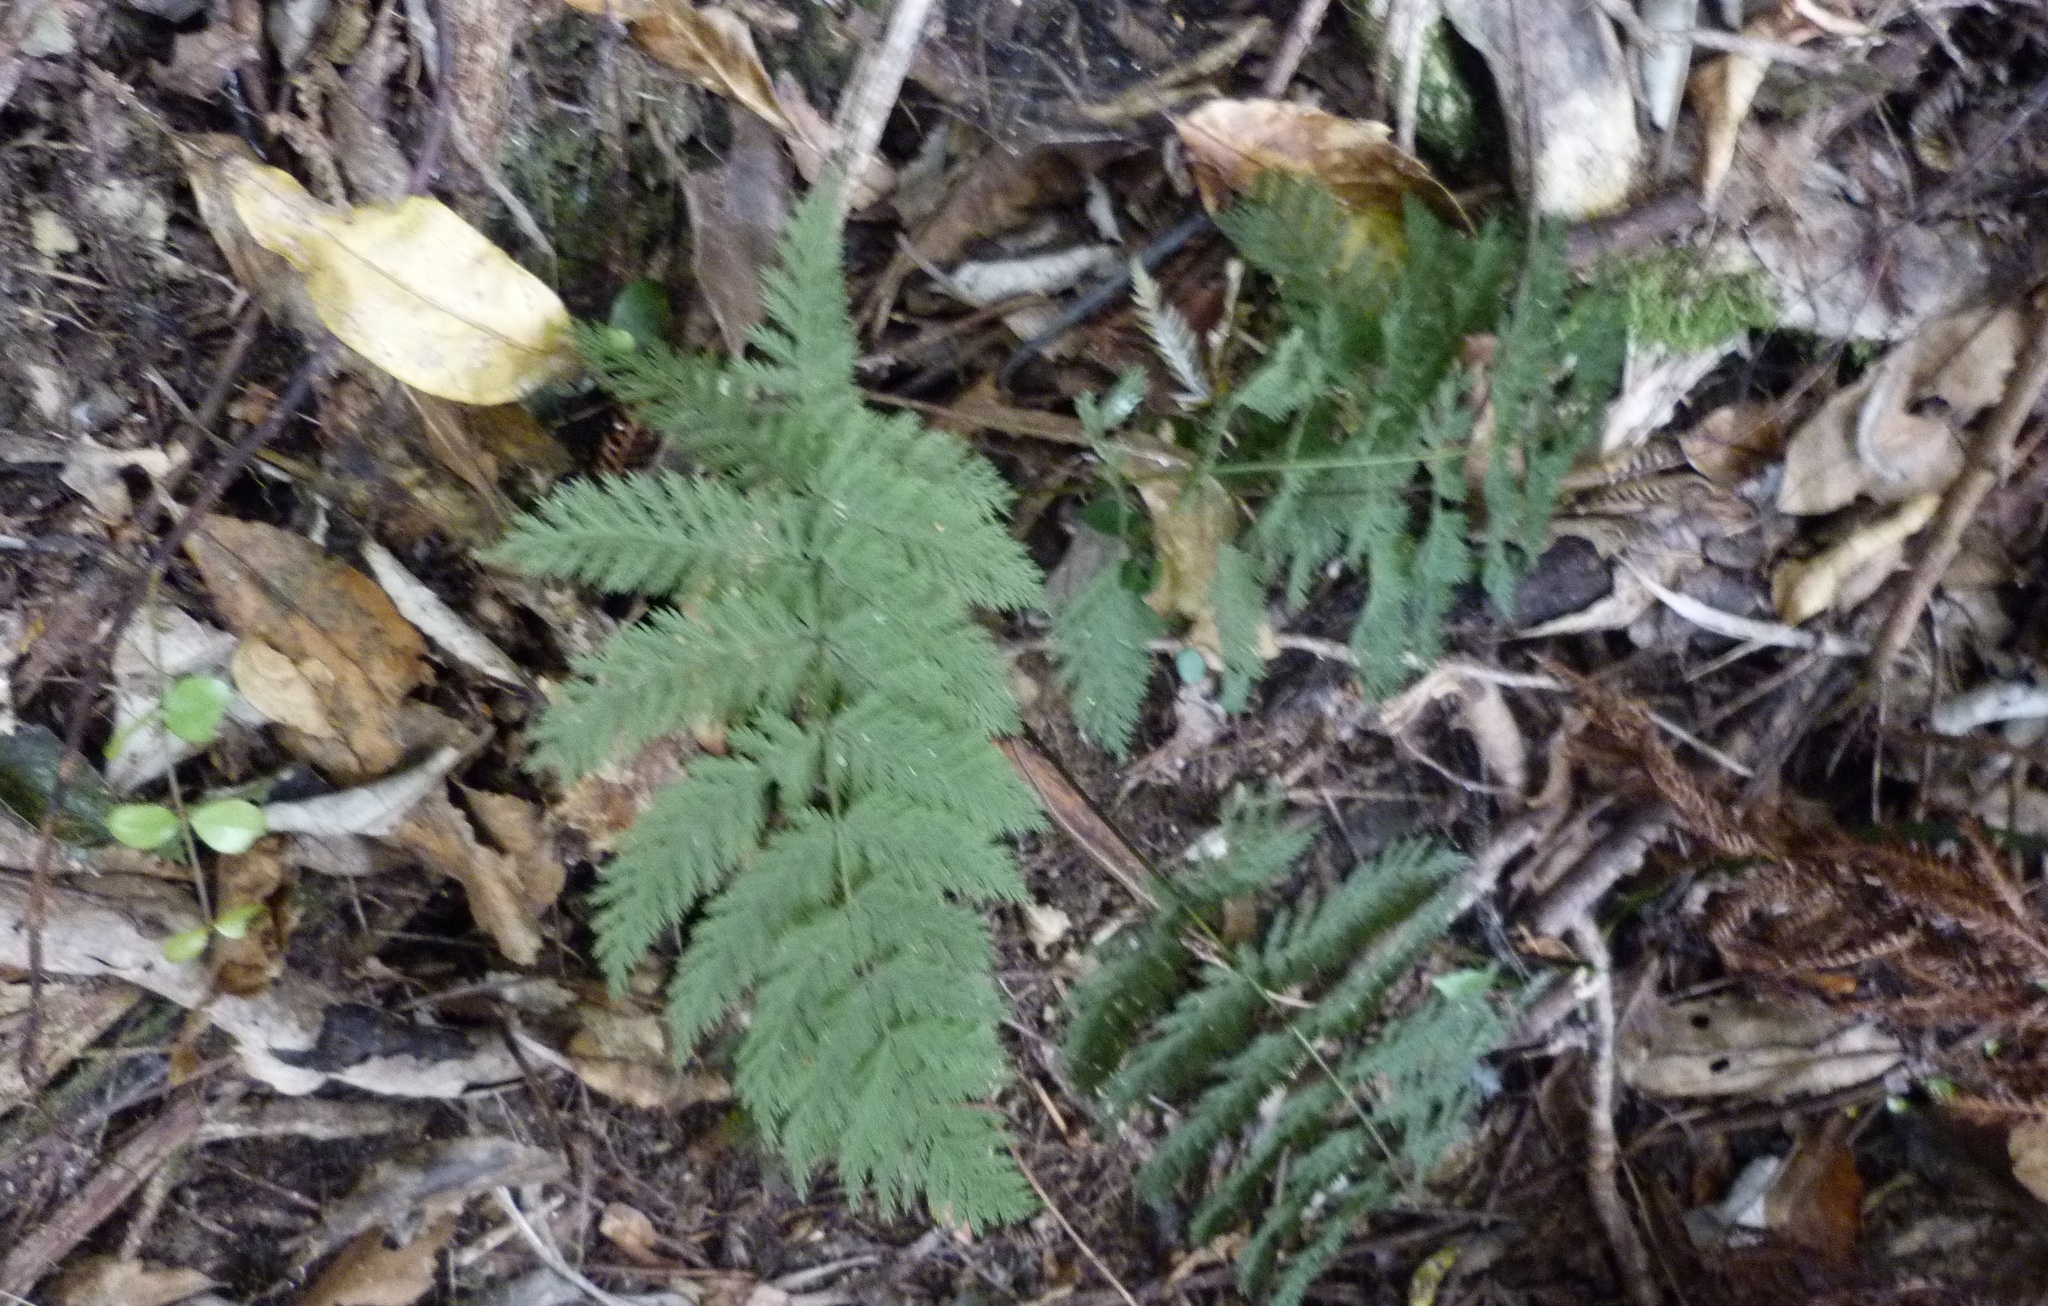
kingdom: Plantae
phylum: Tracheophyta
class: Polypodiopsida
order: Osmundales
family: Osmundaceae
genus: Leptopteris
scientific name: Leptopteris hymenophylloides
